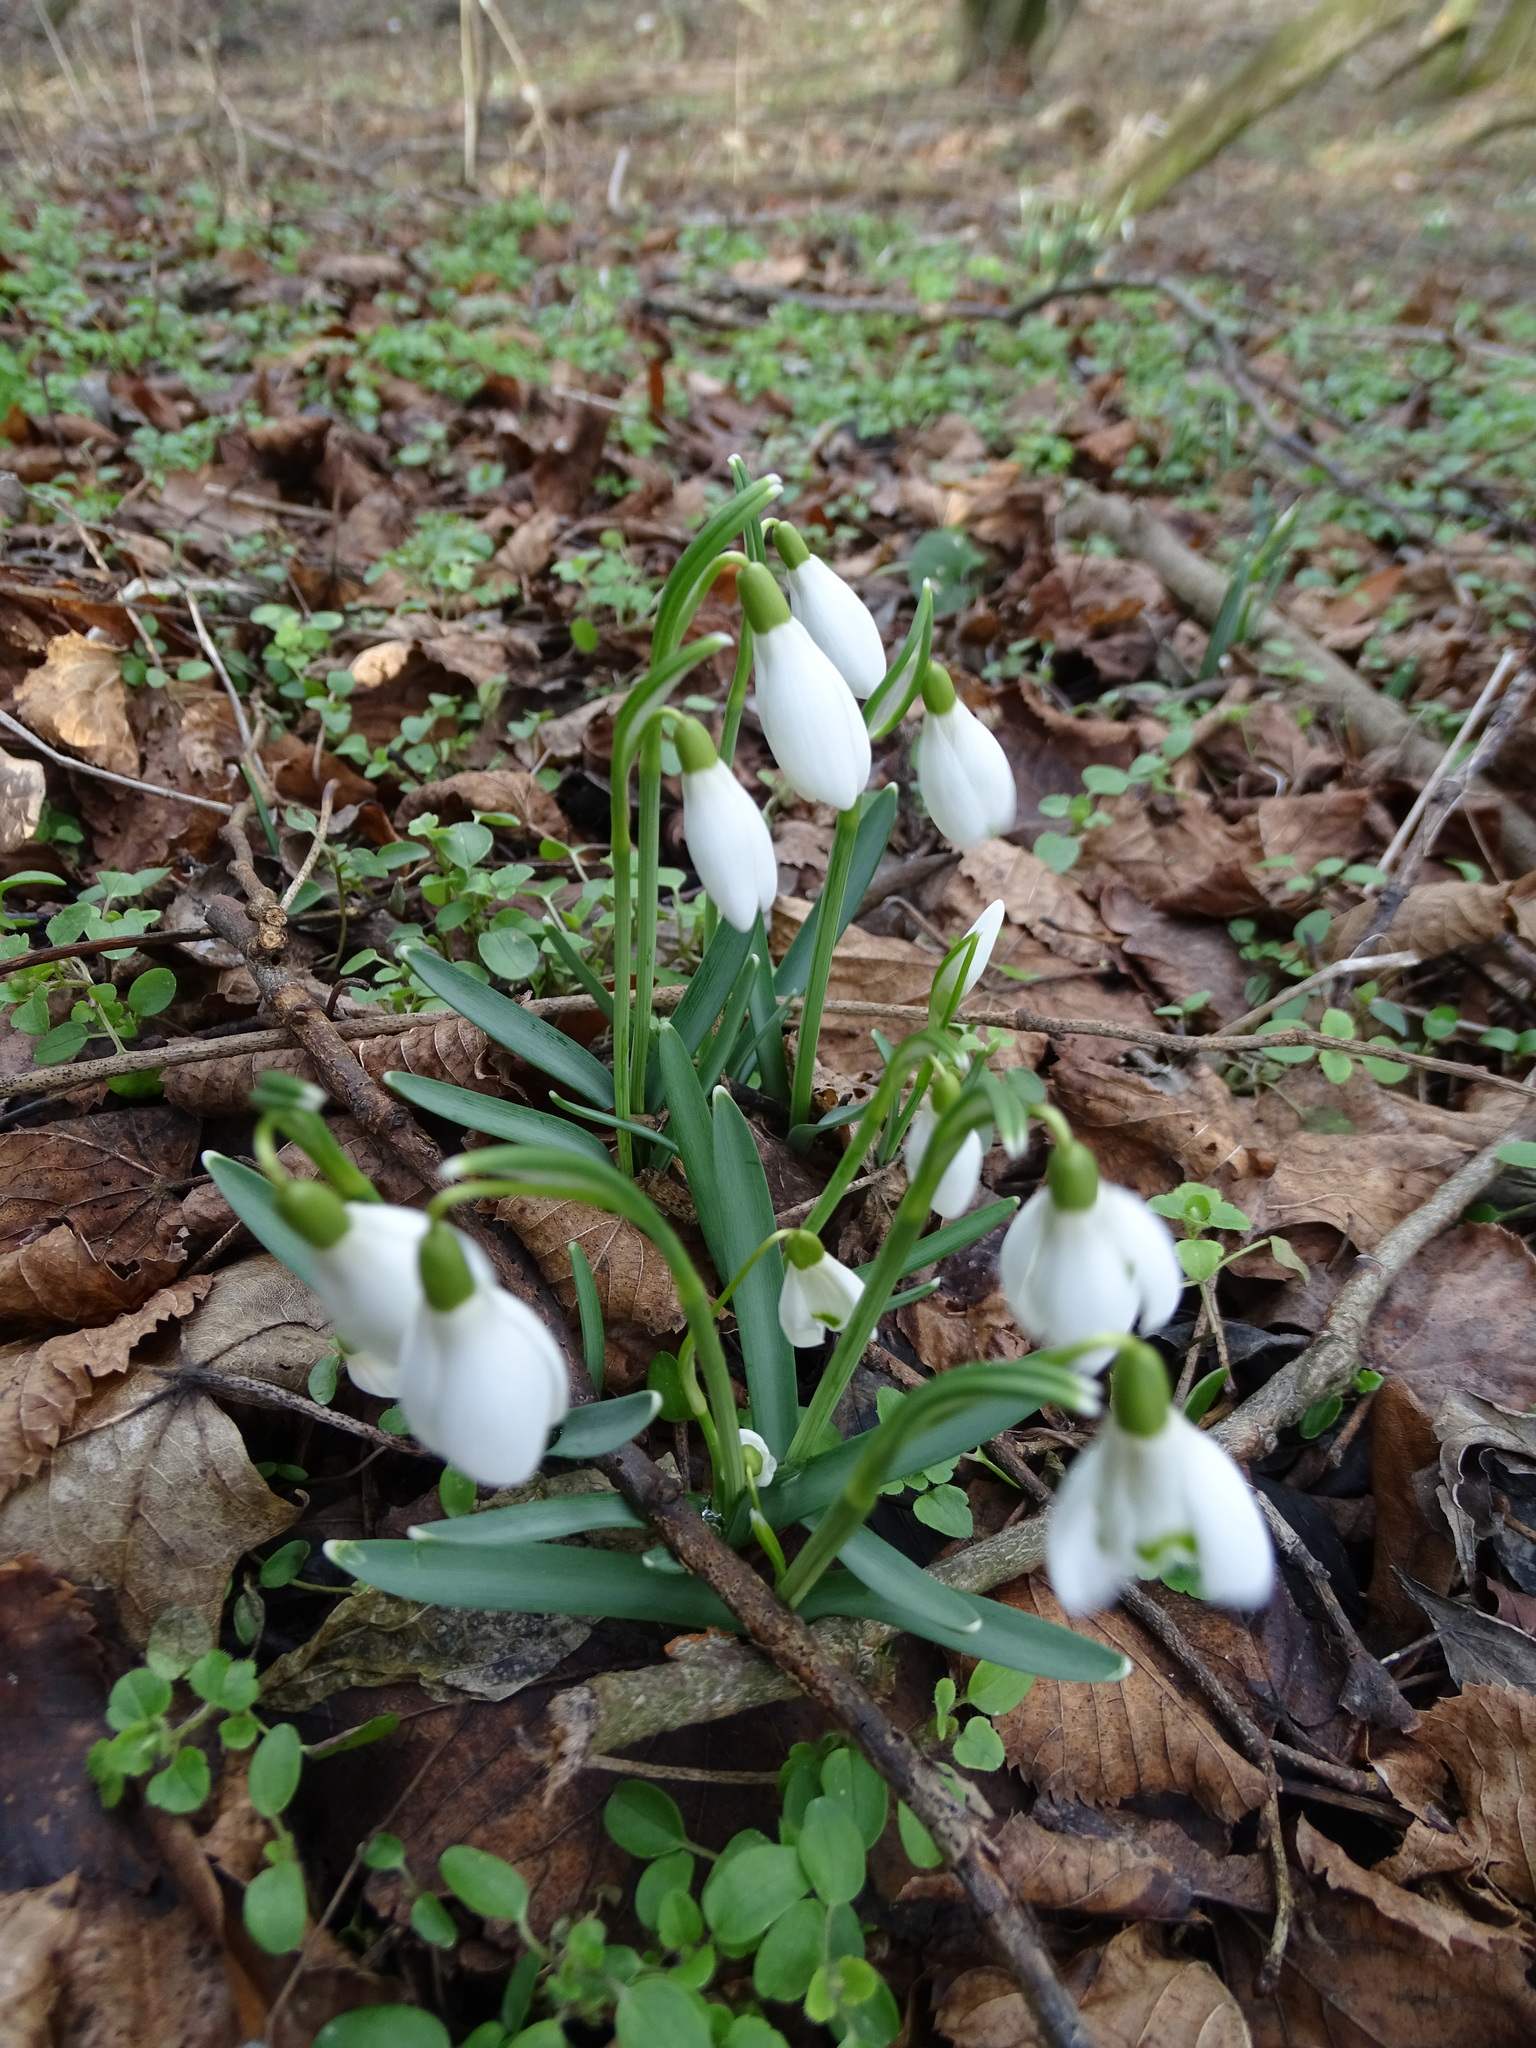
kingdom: Plantae
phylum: Tracheophyta
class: Liliopsida
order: Asparagales
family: Amaryllidaceae
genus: Galanthus
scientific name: Galanthus nivalis
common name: Snowdrop
